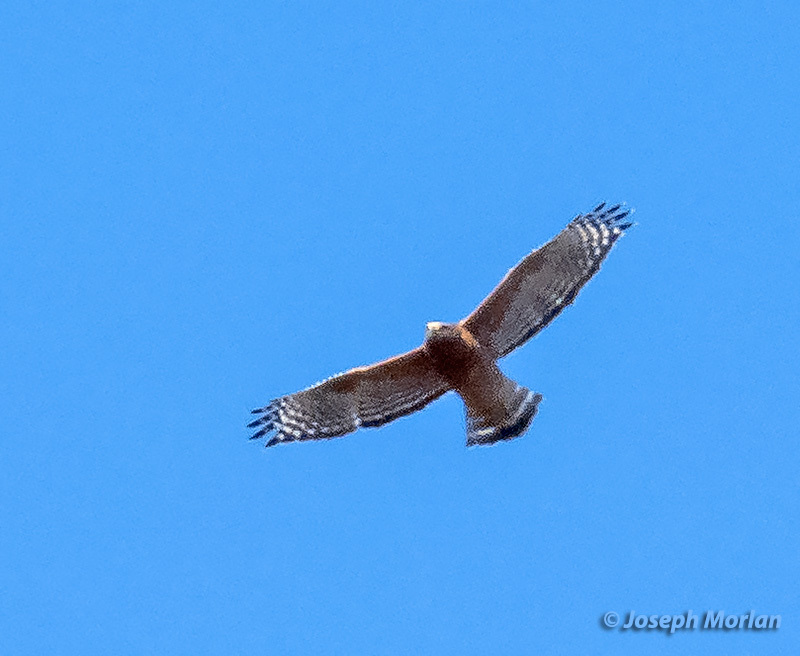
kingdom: Animalia
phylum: Chordata
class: Aves
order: Accipitriformes
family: Accipitridae
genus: Buteo
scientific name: Buteo lineatus
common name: Red-shouldered hawk
